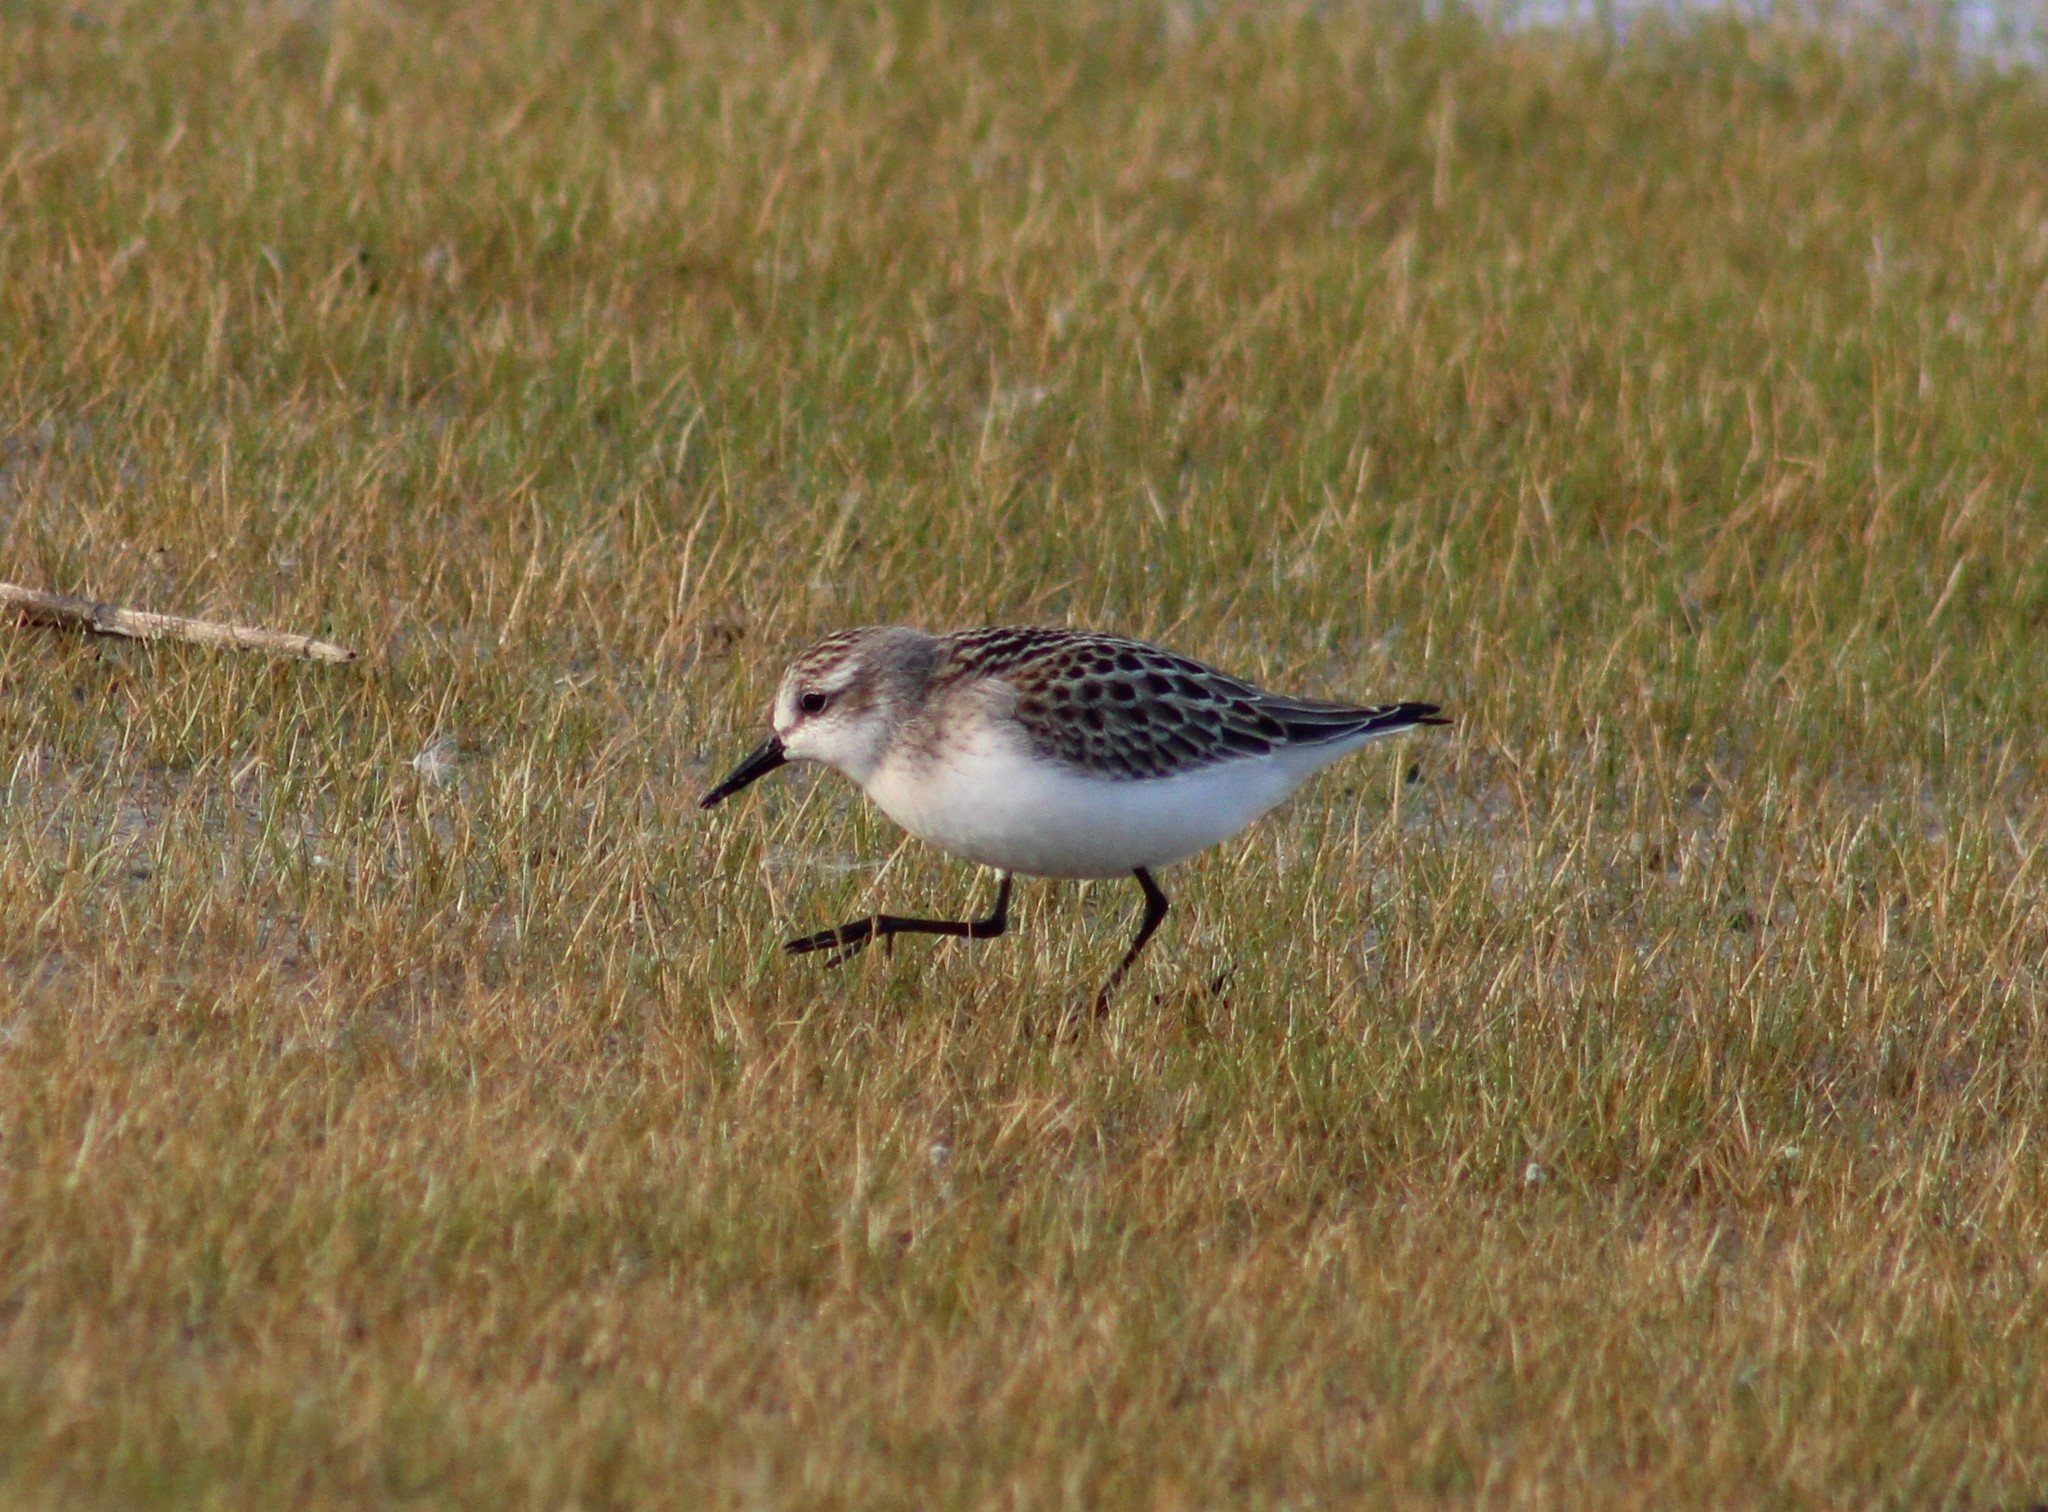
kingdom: Animalia
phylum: Chordata
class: Aves
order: Charadriiformes
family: Scolopacidae
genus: Calidris
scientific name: Calidris pusilla
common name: Semipalmated sandpiper
